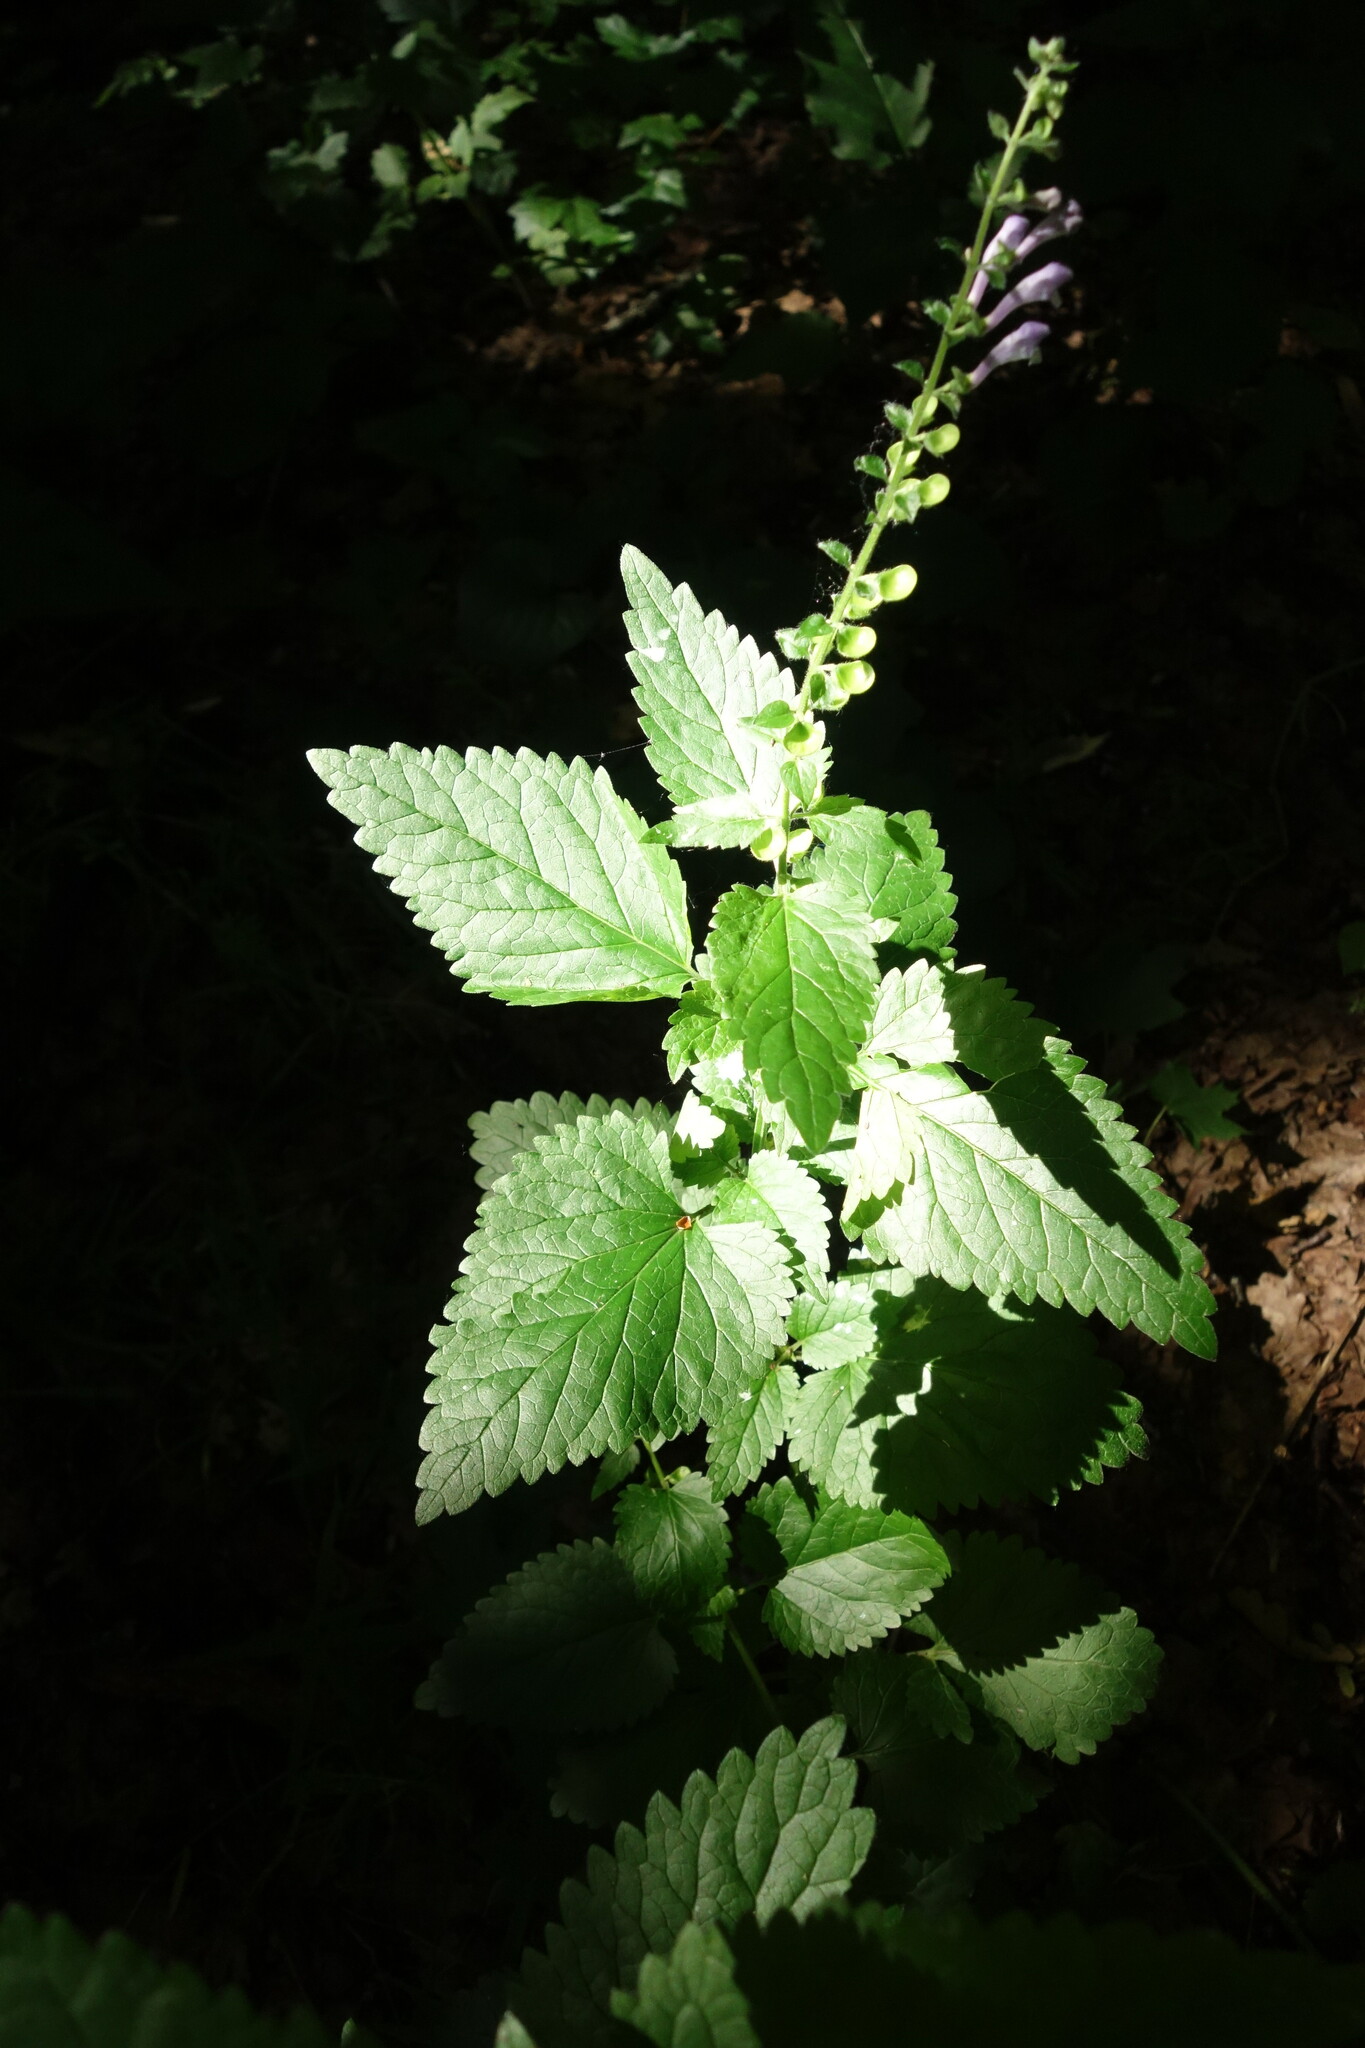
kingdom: Plantae
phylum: Tracheophyta
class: Magnoliopsida
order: Lamiales
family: Lamiaceae
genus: Scutellaria
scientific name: Scutellaria altissima
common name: Somerset skullcap
